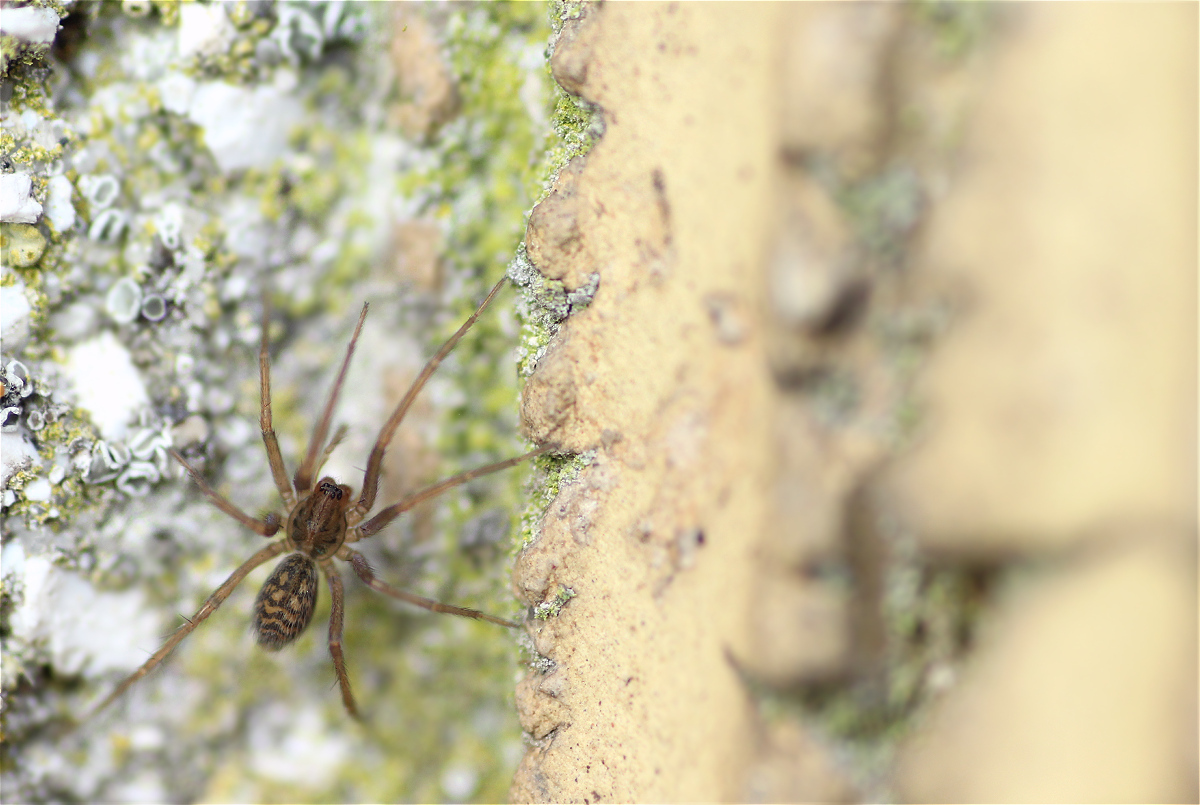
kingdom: Animalia
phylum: Arthropoda
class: Arachnida
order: Araneae
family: Agelenidae
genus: Eratigena
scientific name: Eratigena atrica
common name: Giant house spider
